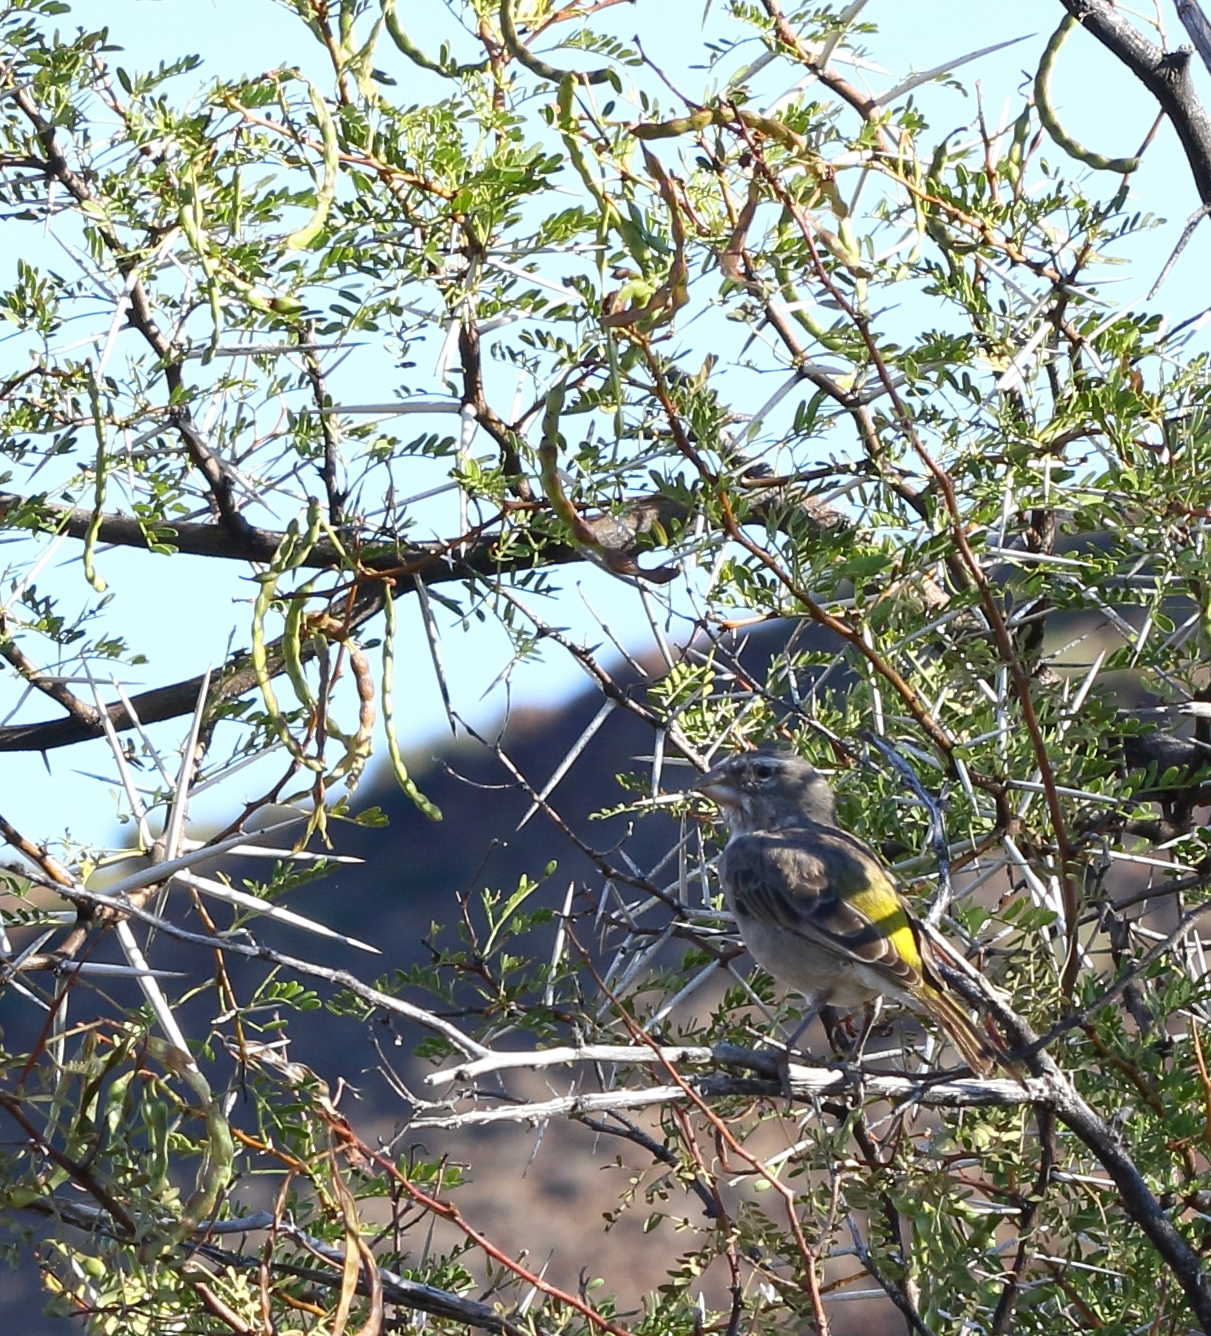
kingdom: Animalia
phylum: Chordata
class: Aves
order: Passeriformes
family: Fringillidae
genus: Crithagra
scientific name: Crithagra albogularis
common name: White-throated canary
